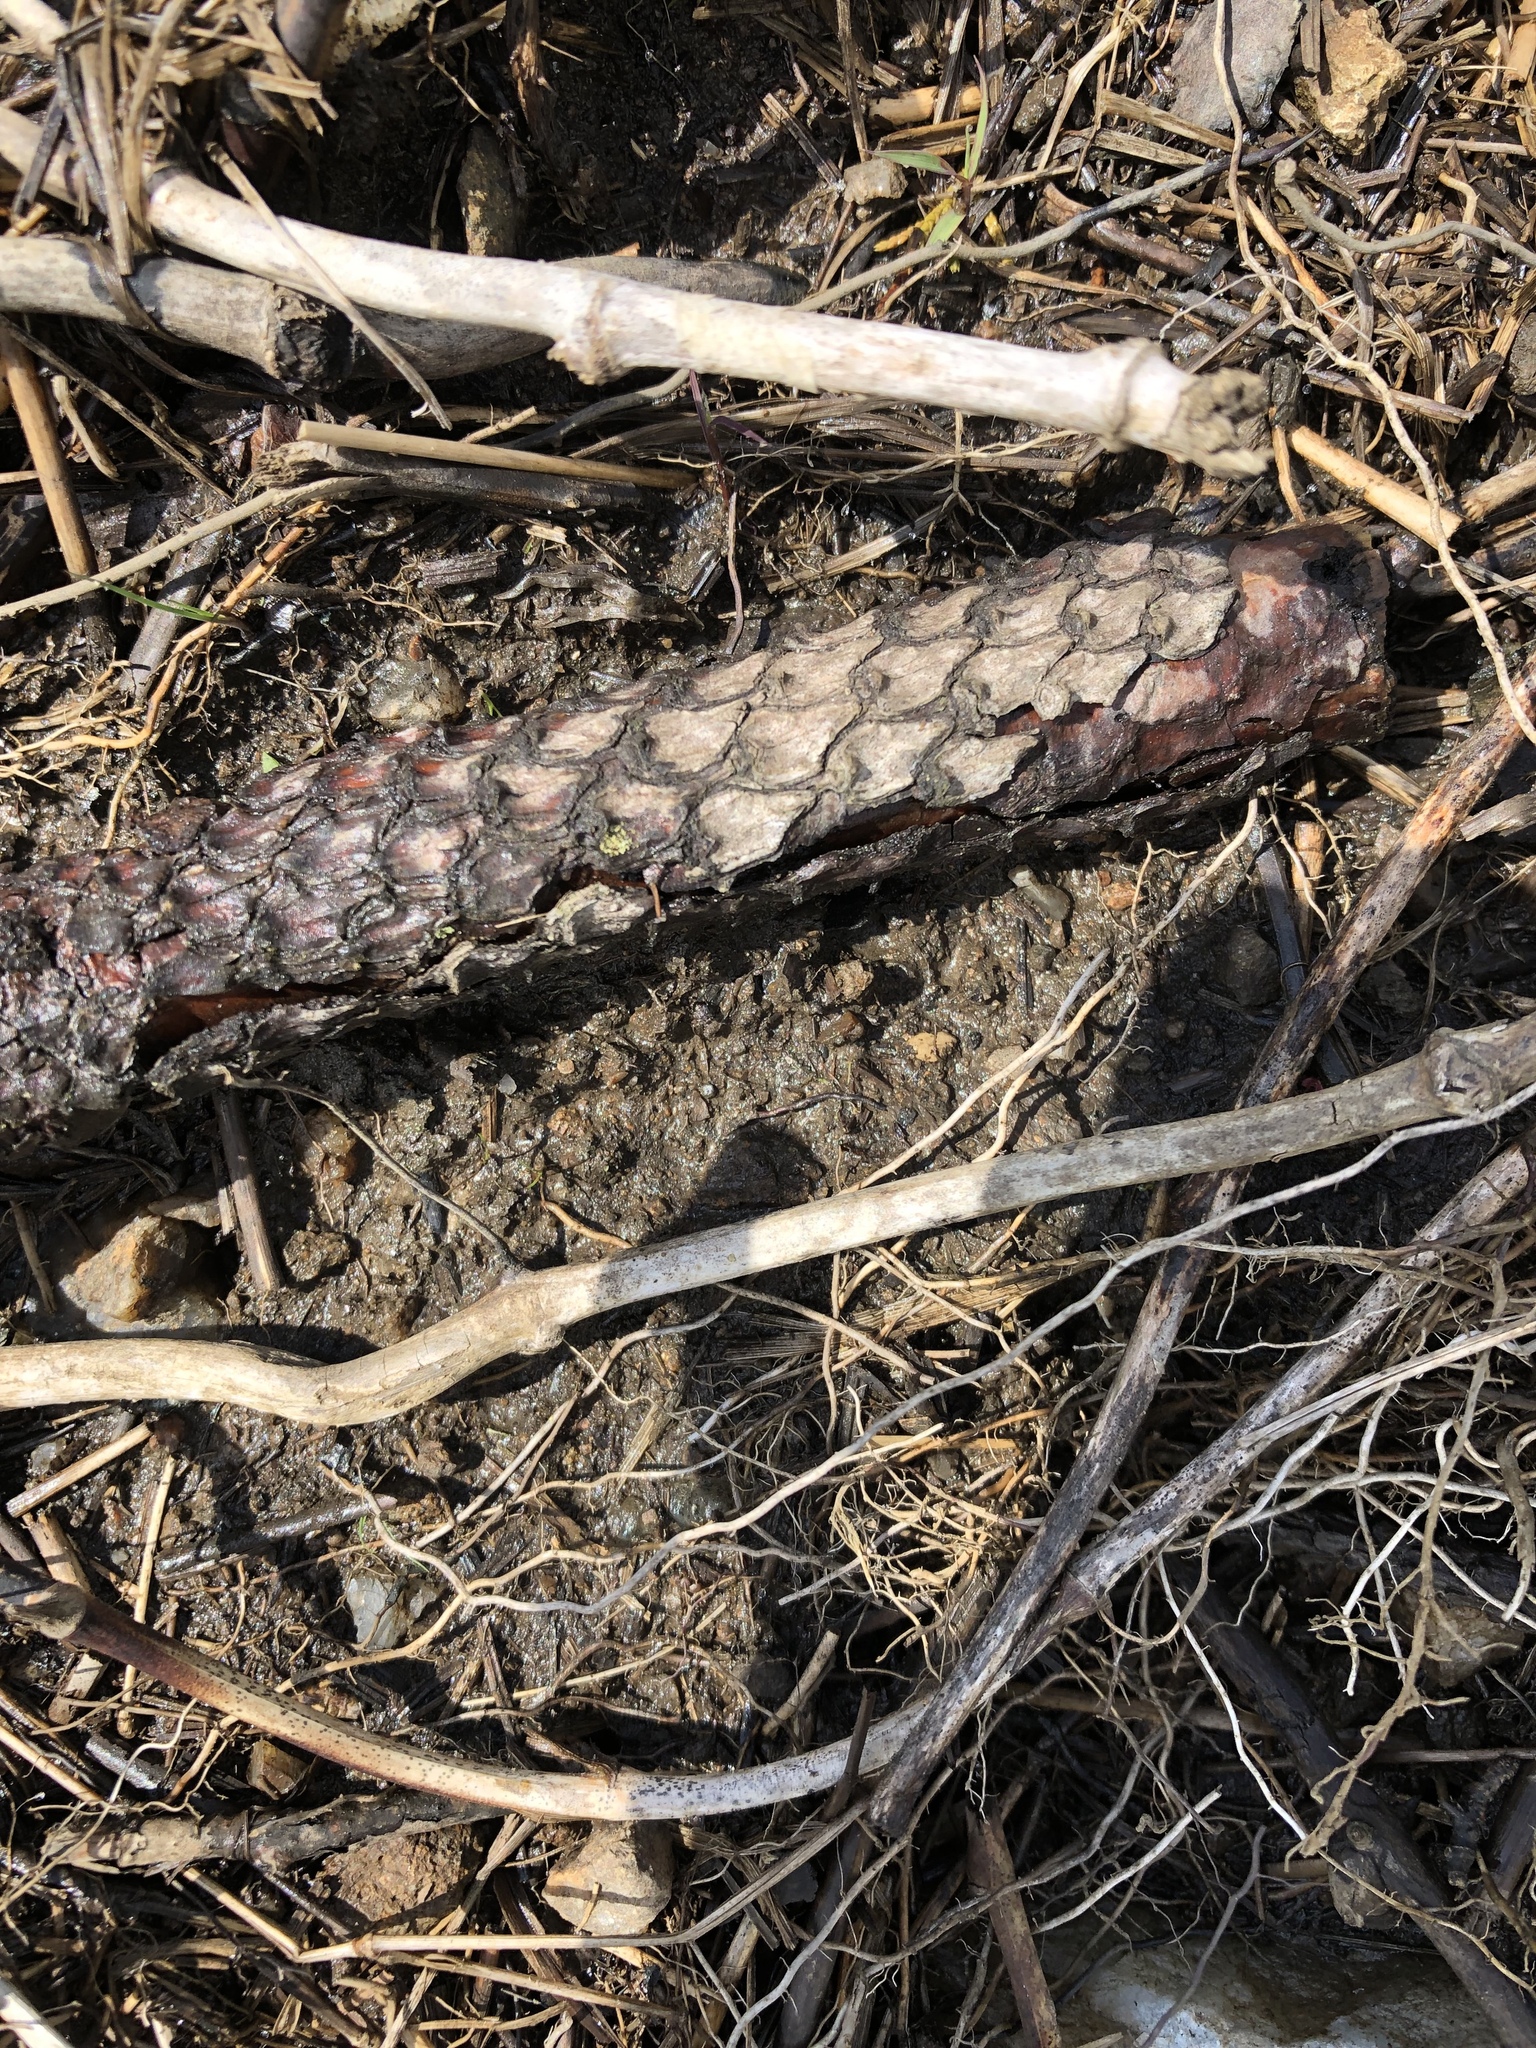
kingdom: Plantae
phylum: Tracheophyta
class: Pinopsida
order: Pinales
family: Pinaceae
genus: Pinus
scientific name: Pinus rigida
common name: Pitch pine
